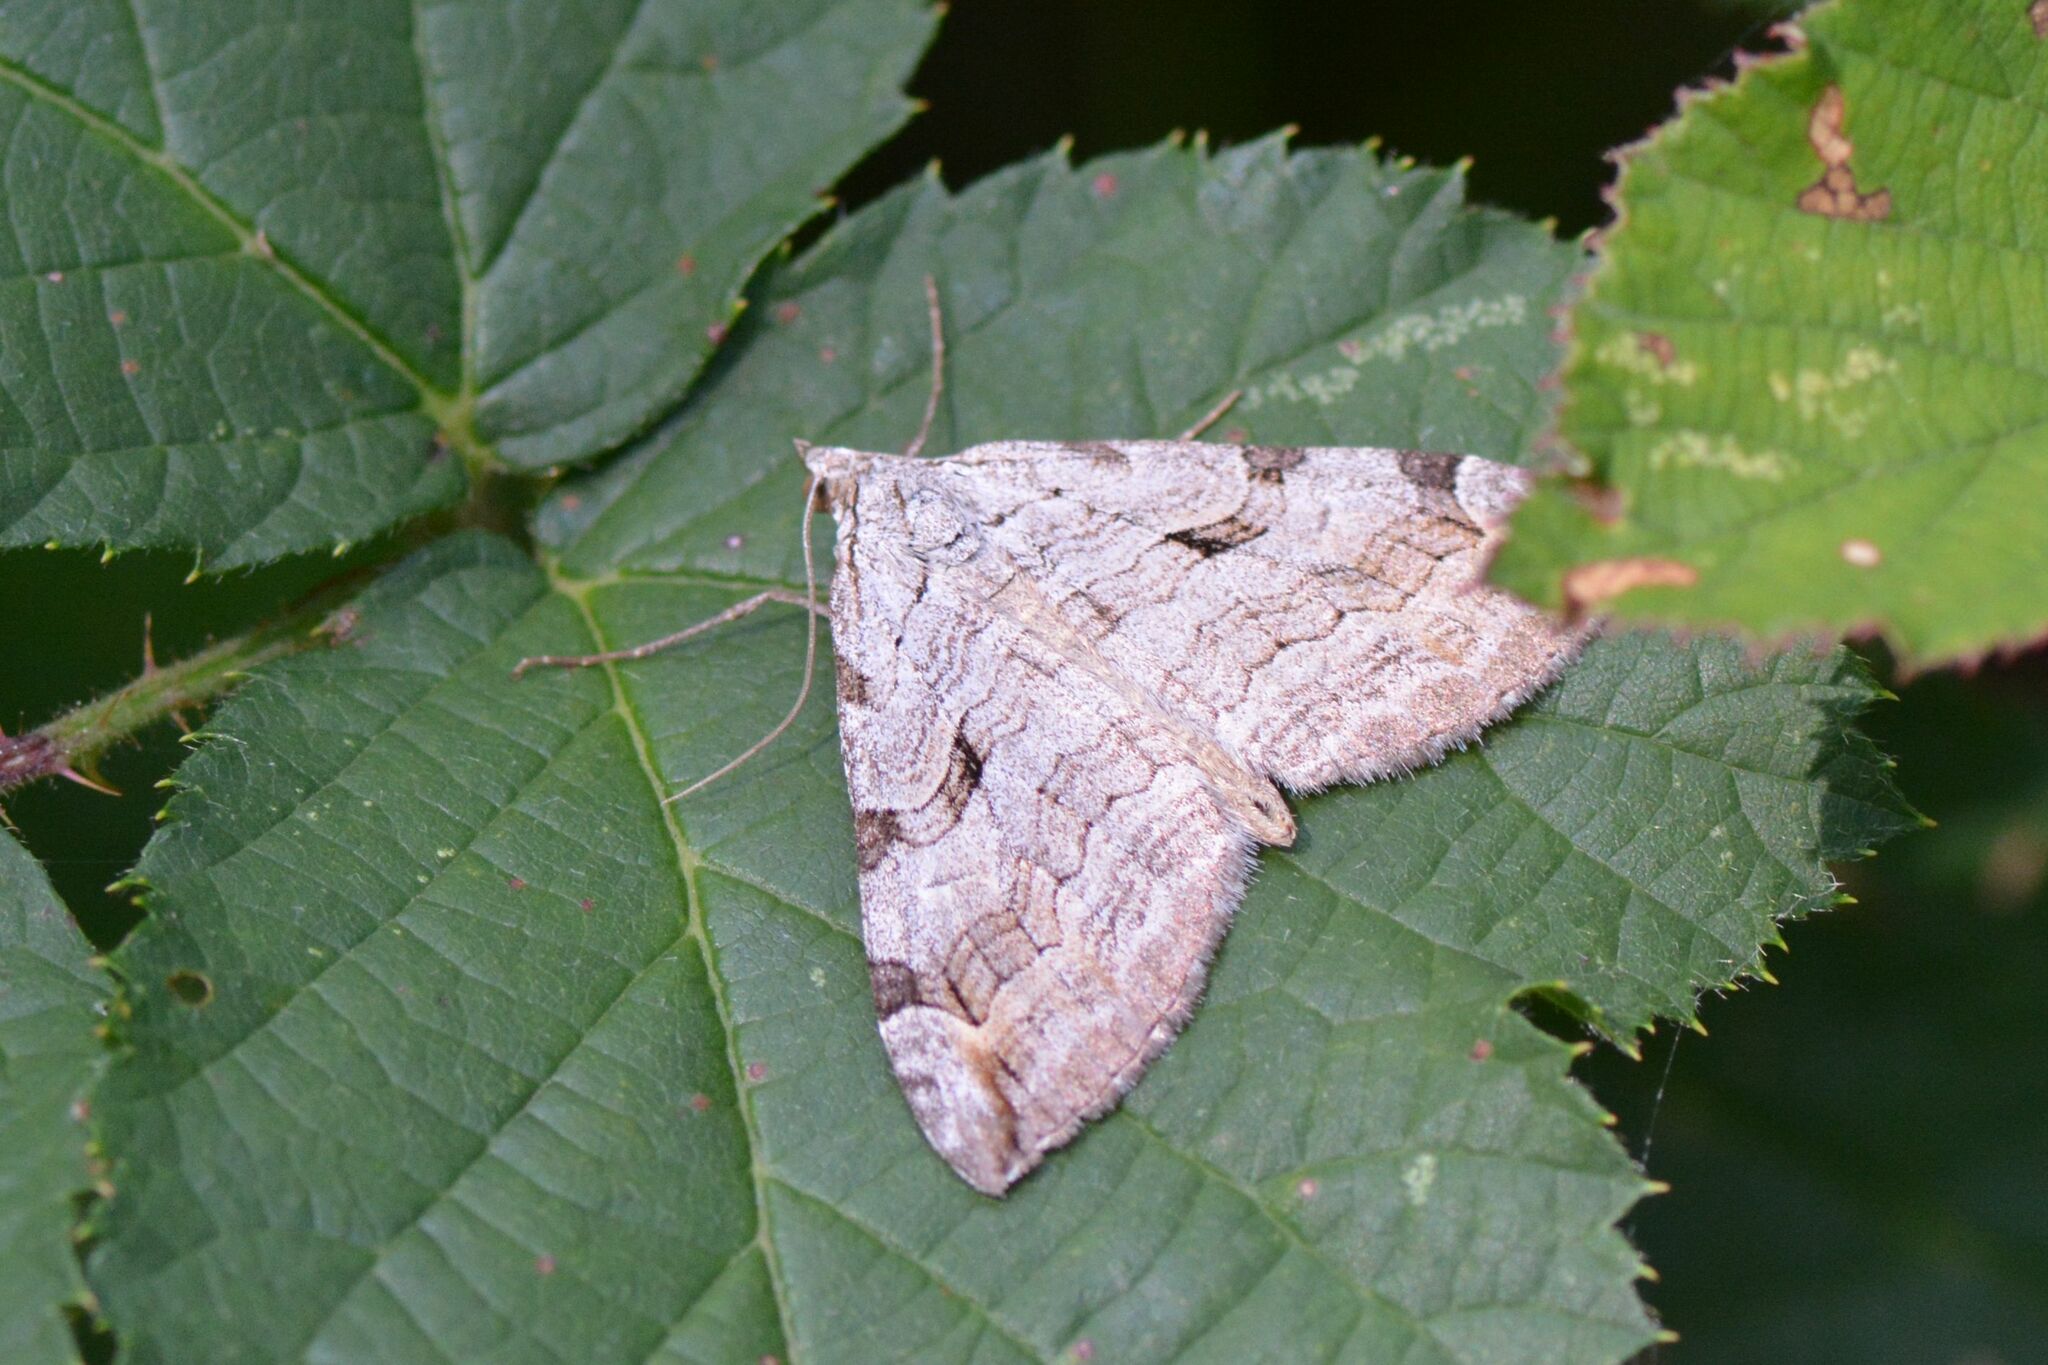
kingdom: Animalia
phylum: Arthropoda
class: Insecta
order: Lepidoptera
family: Geometridae
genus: Aplocera
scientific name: Aplocera plagiata
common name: Treble-bar
